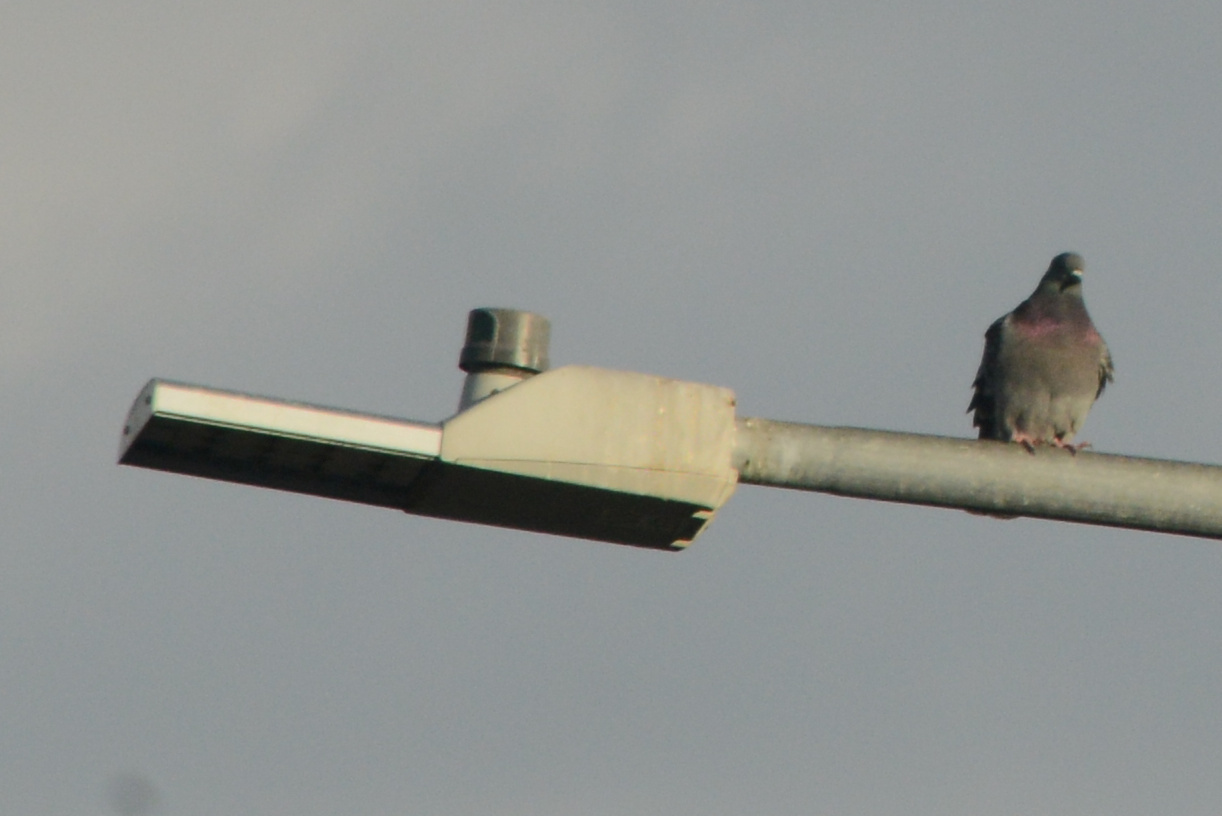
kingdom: Animalia
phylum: Chordata
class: Aves
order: Columbiformes
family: Columbidae
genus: Columba
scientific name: Columba livia
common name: Rock pigeon
